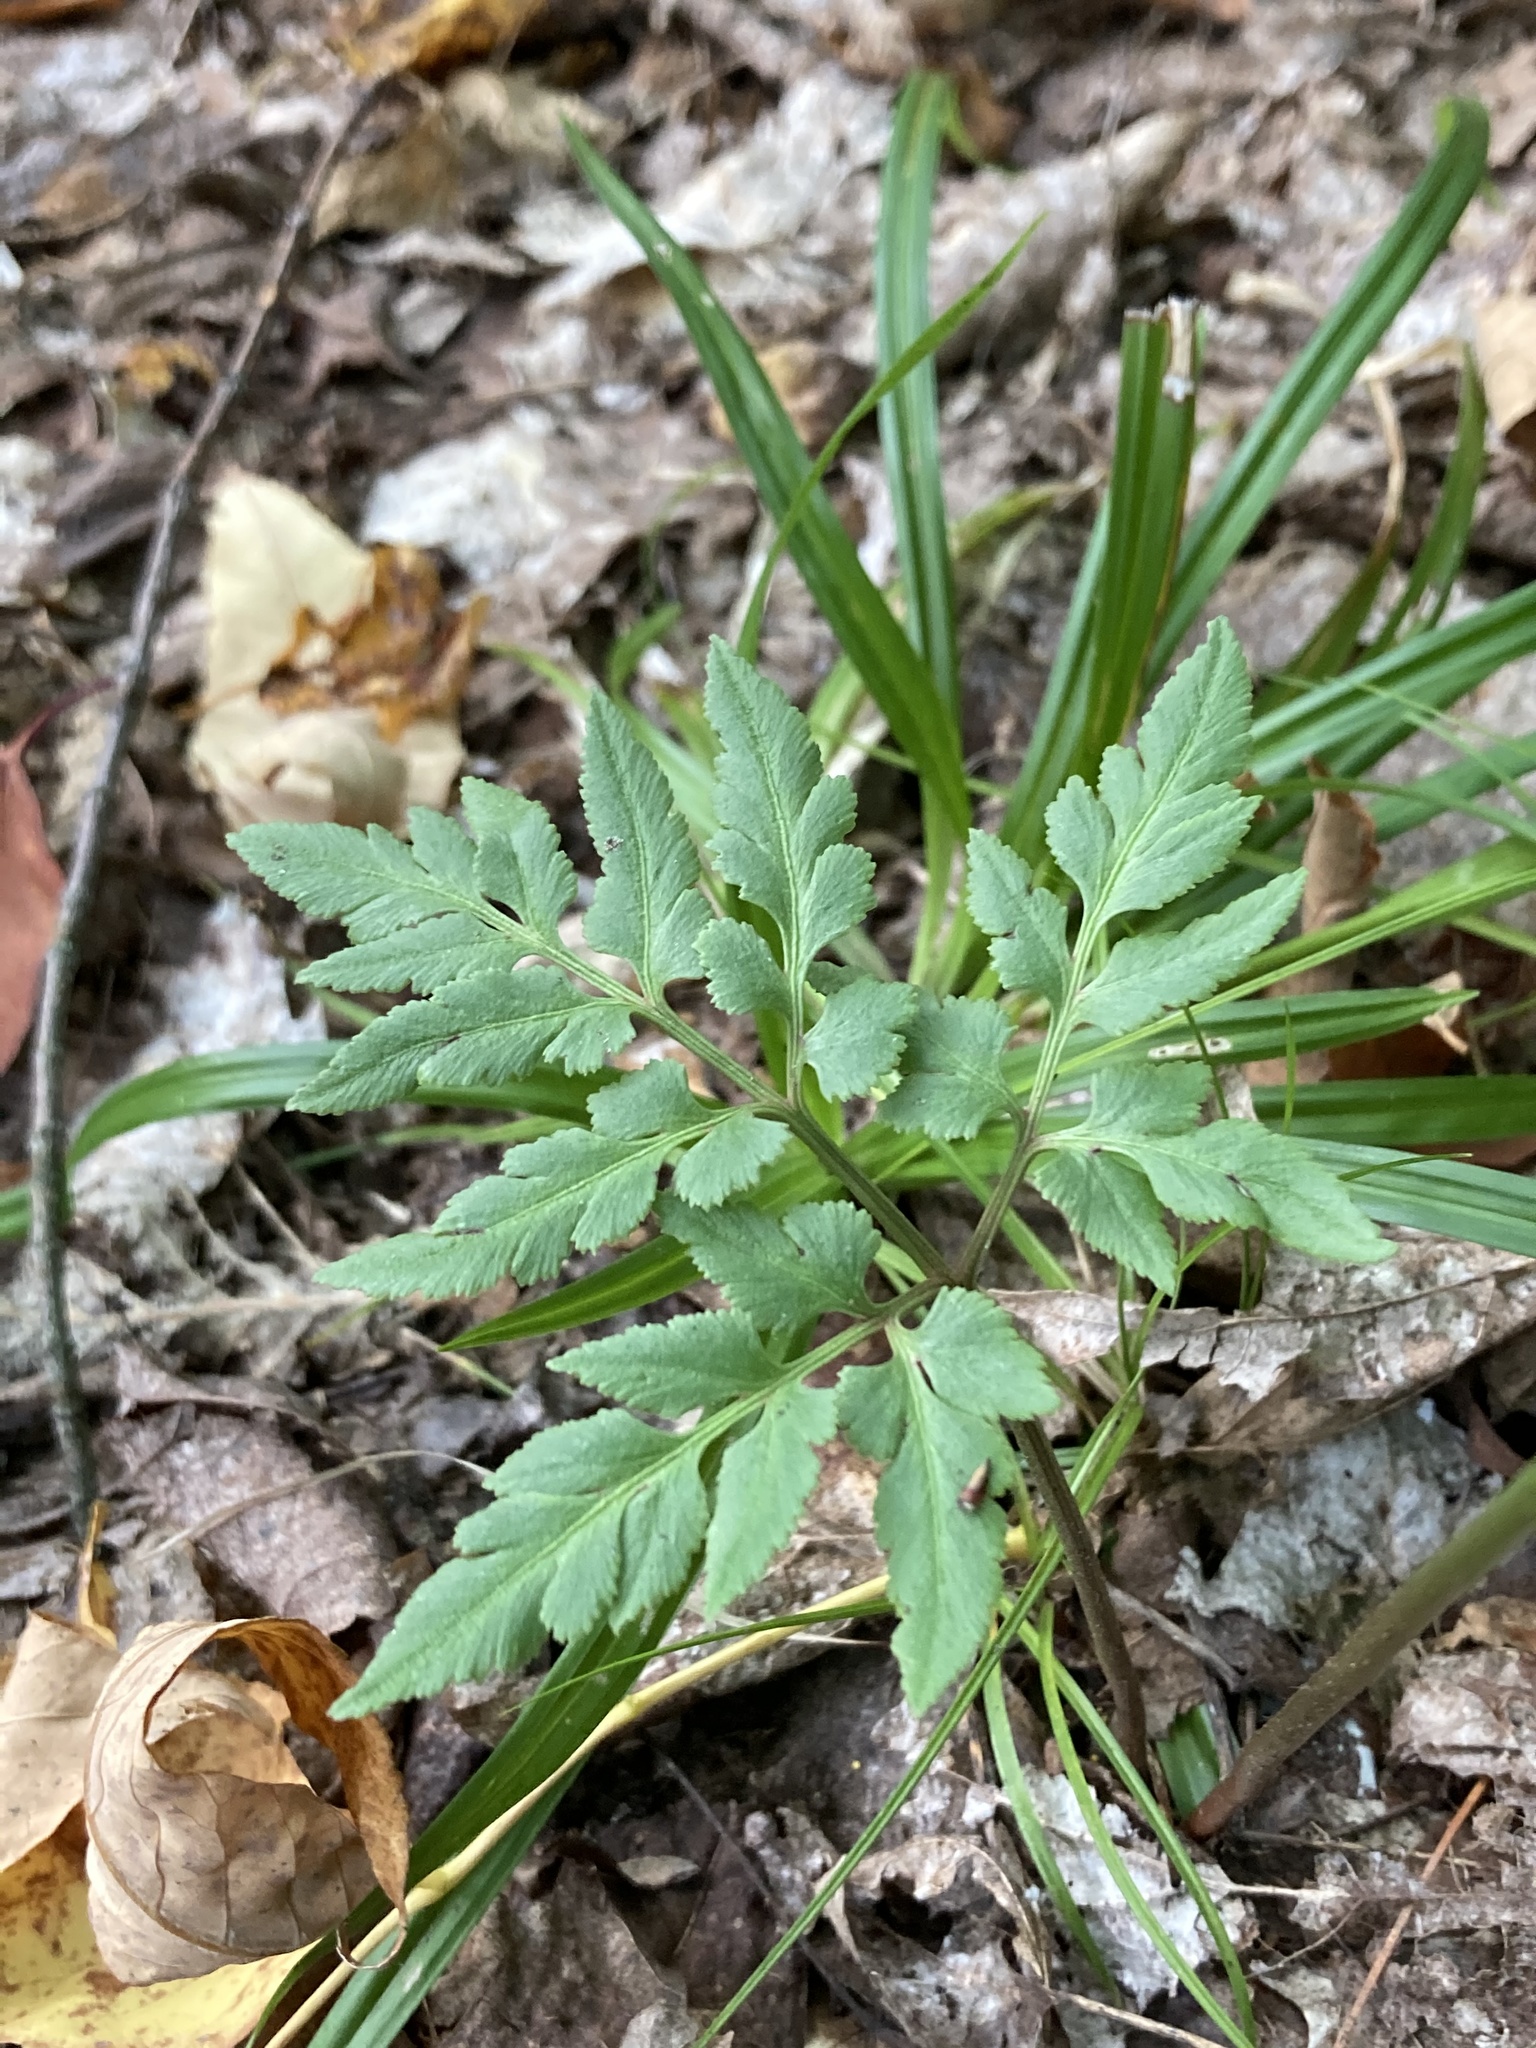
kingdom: Plantae
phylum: Tracheophyta
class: Polypodiopsida
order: Ophioglossales
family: Ophioglossaceae
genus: Sceptridium
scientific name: Sceptridium dissectum
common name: Cut-leaved grapefern
